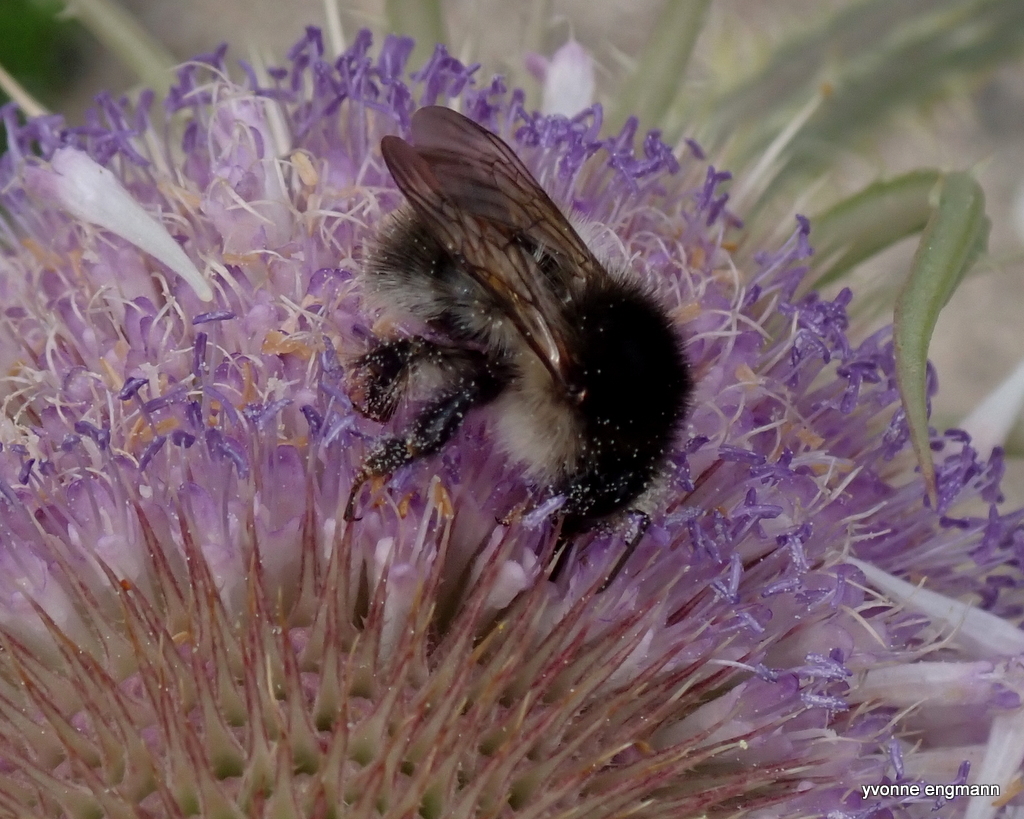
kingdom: Animalia
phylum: Arthropoda
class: Insecta
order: Hymenoptera
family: Apidae
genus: Bombus
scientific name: Bombus pascuorum
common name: Common carder bee
